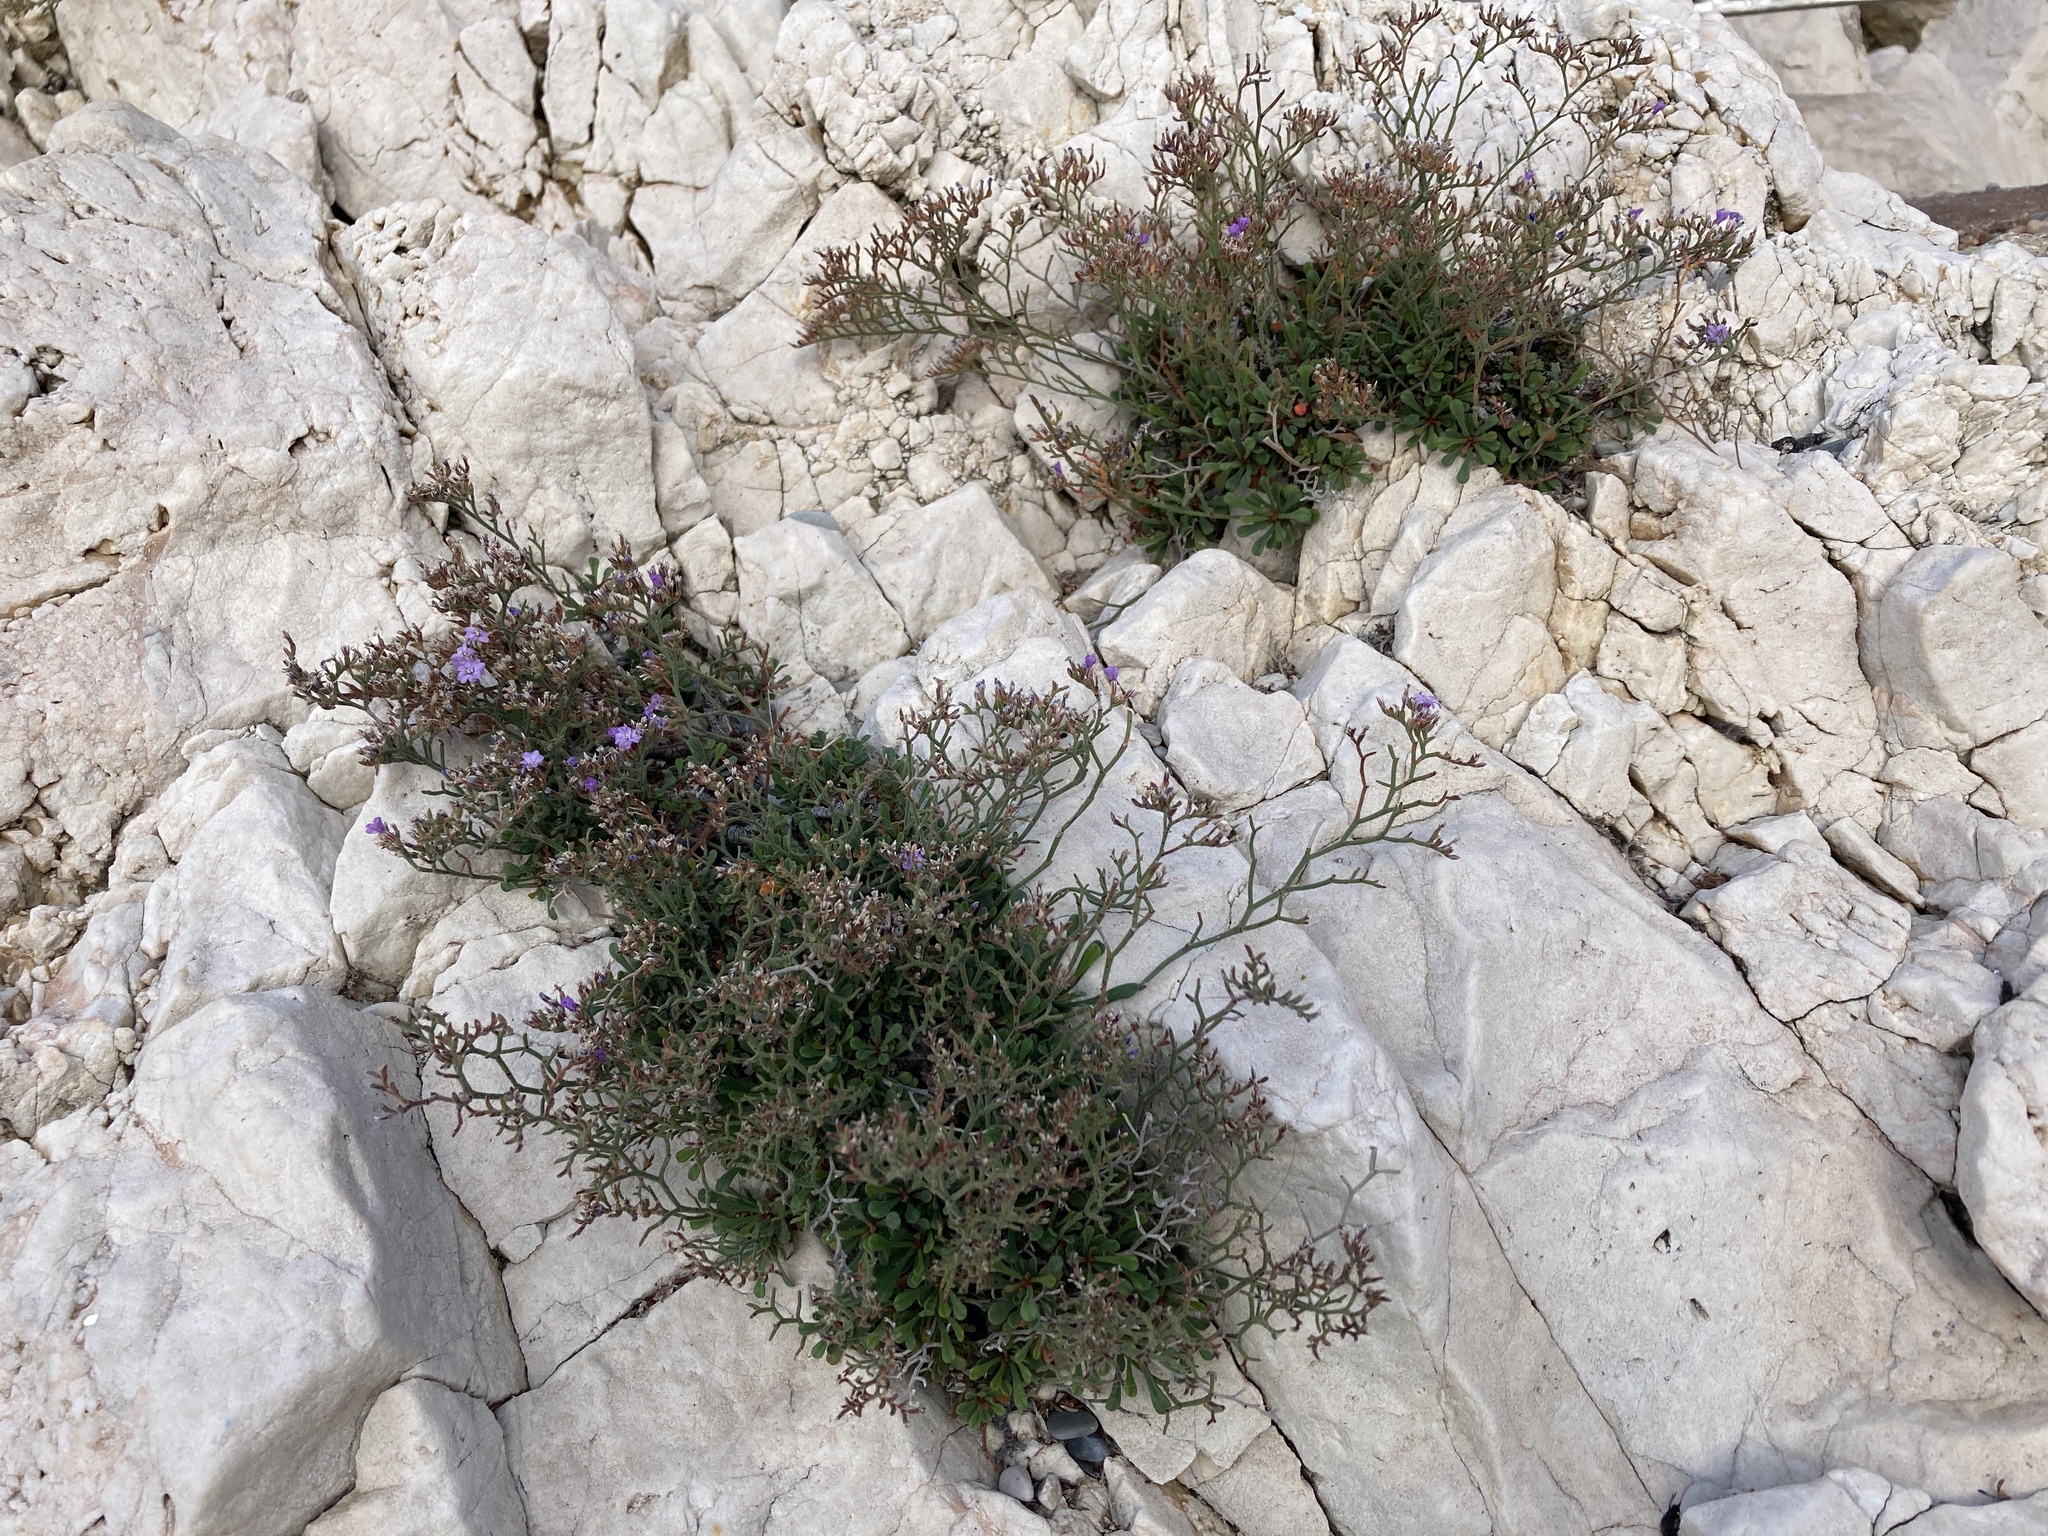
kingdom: Plantae
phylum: Tracheophyta
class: Magnoliopsida
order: Caryophyllales
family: Plumbaginaceae
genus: Limonium
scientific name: Limonium cordatum
